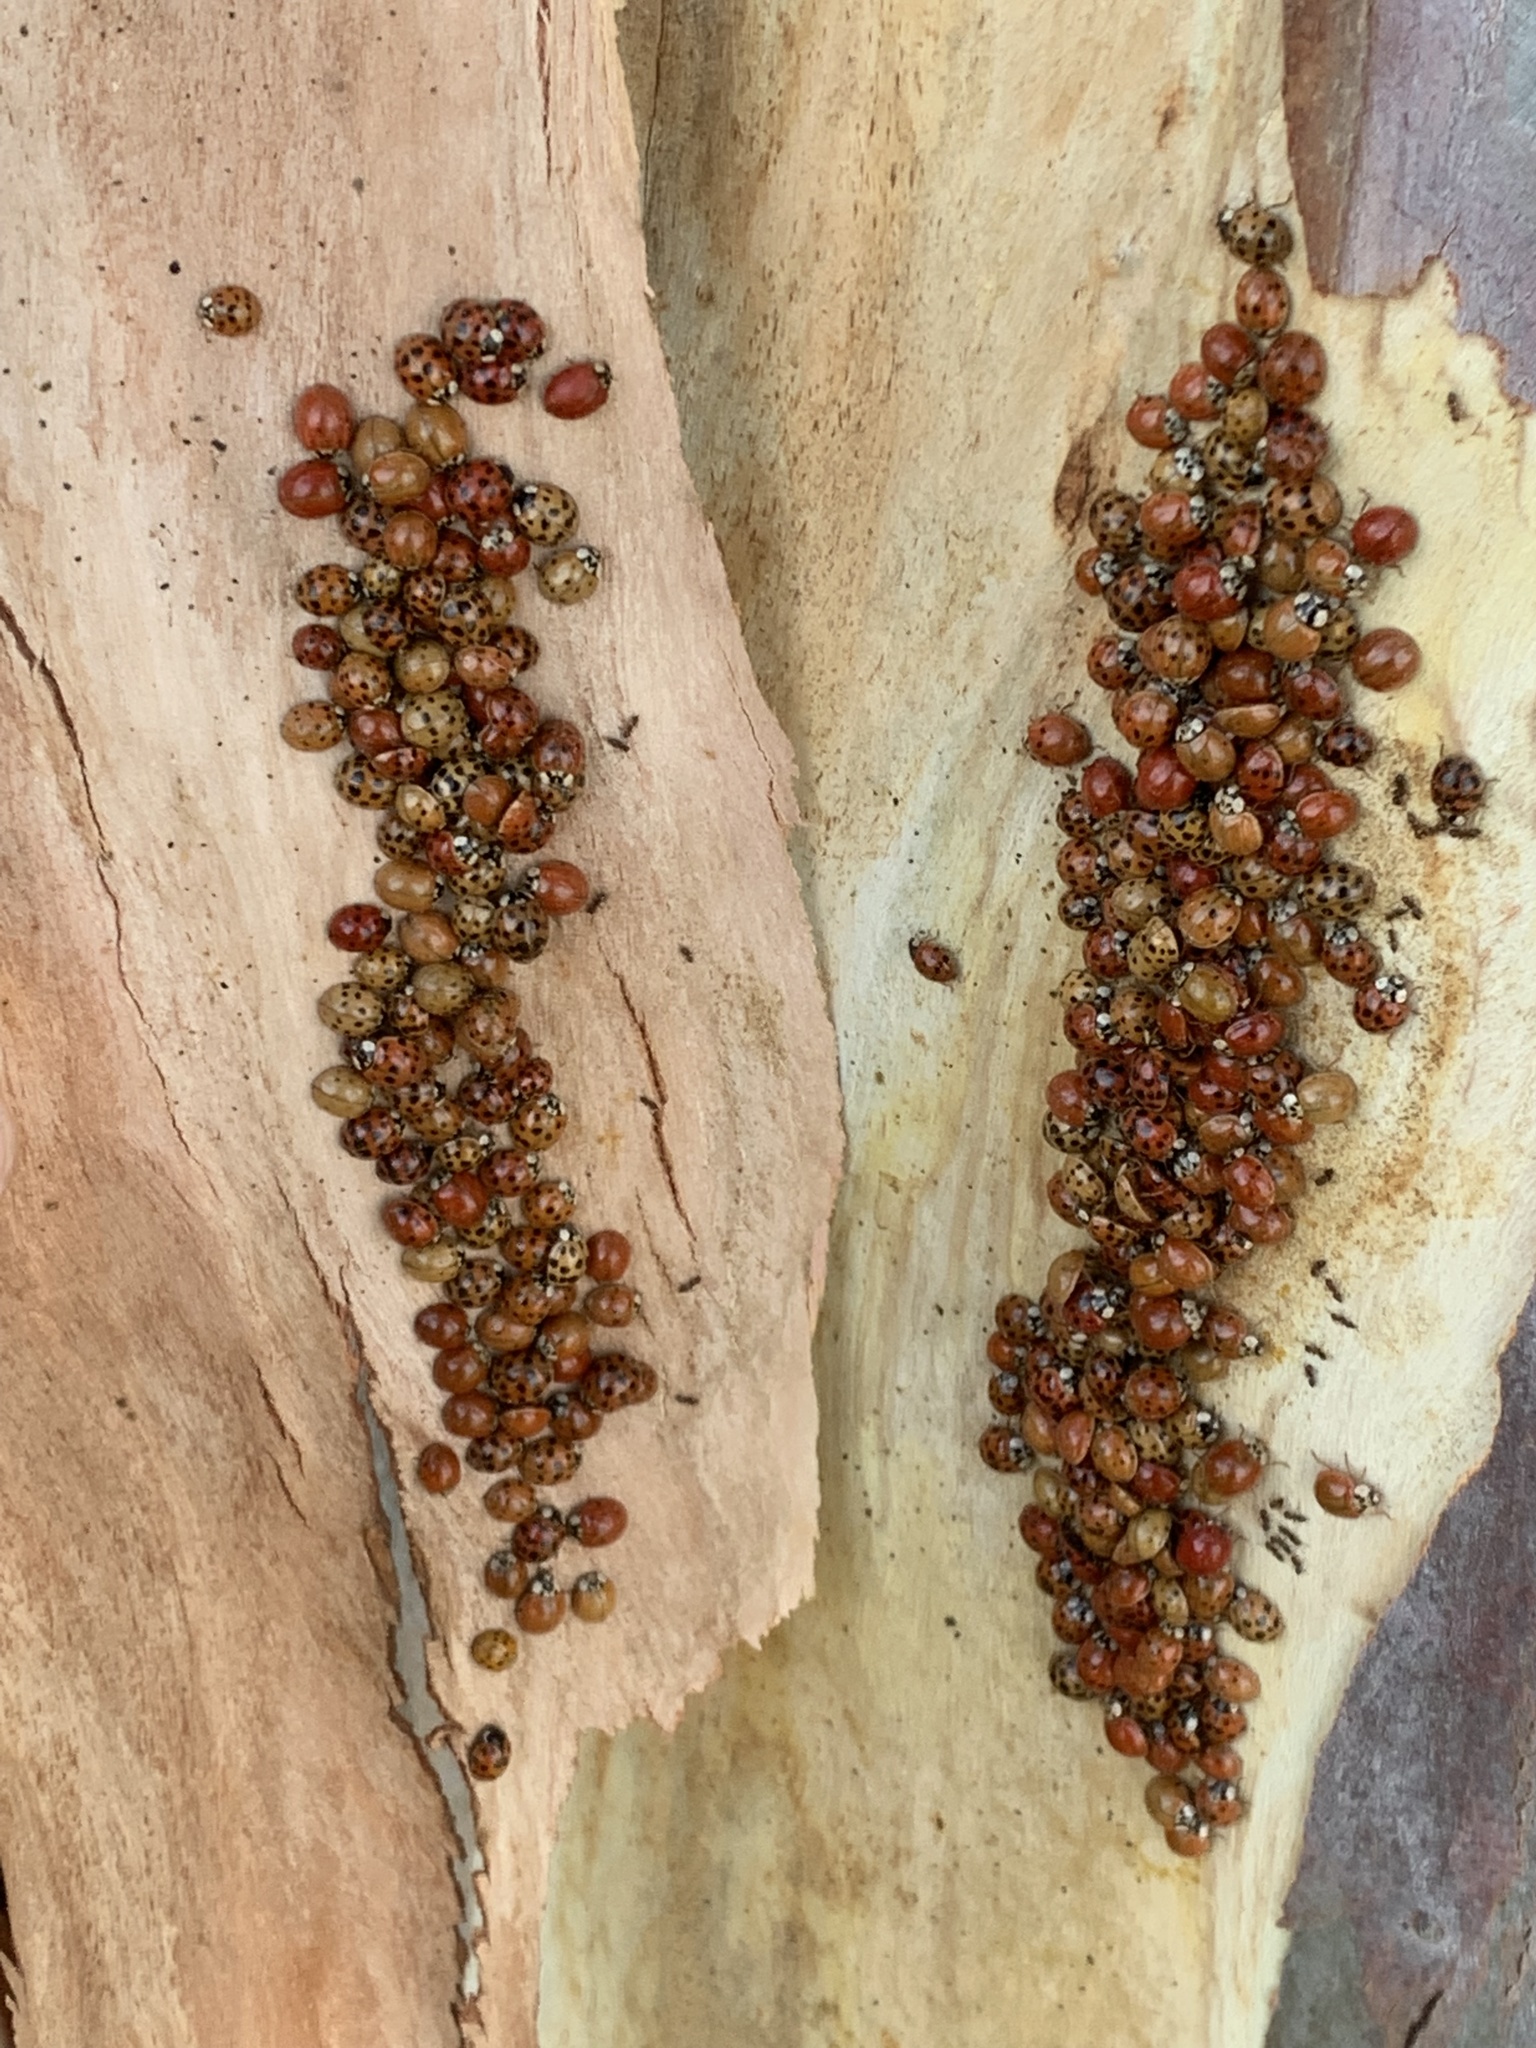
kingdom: Animalia
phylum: Arthropoda
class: Insecta
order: Coleoptera
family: Coccinellidae
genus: Harmonia
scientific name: Harmonia axyridis
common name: Harlequin ladybird
